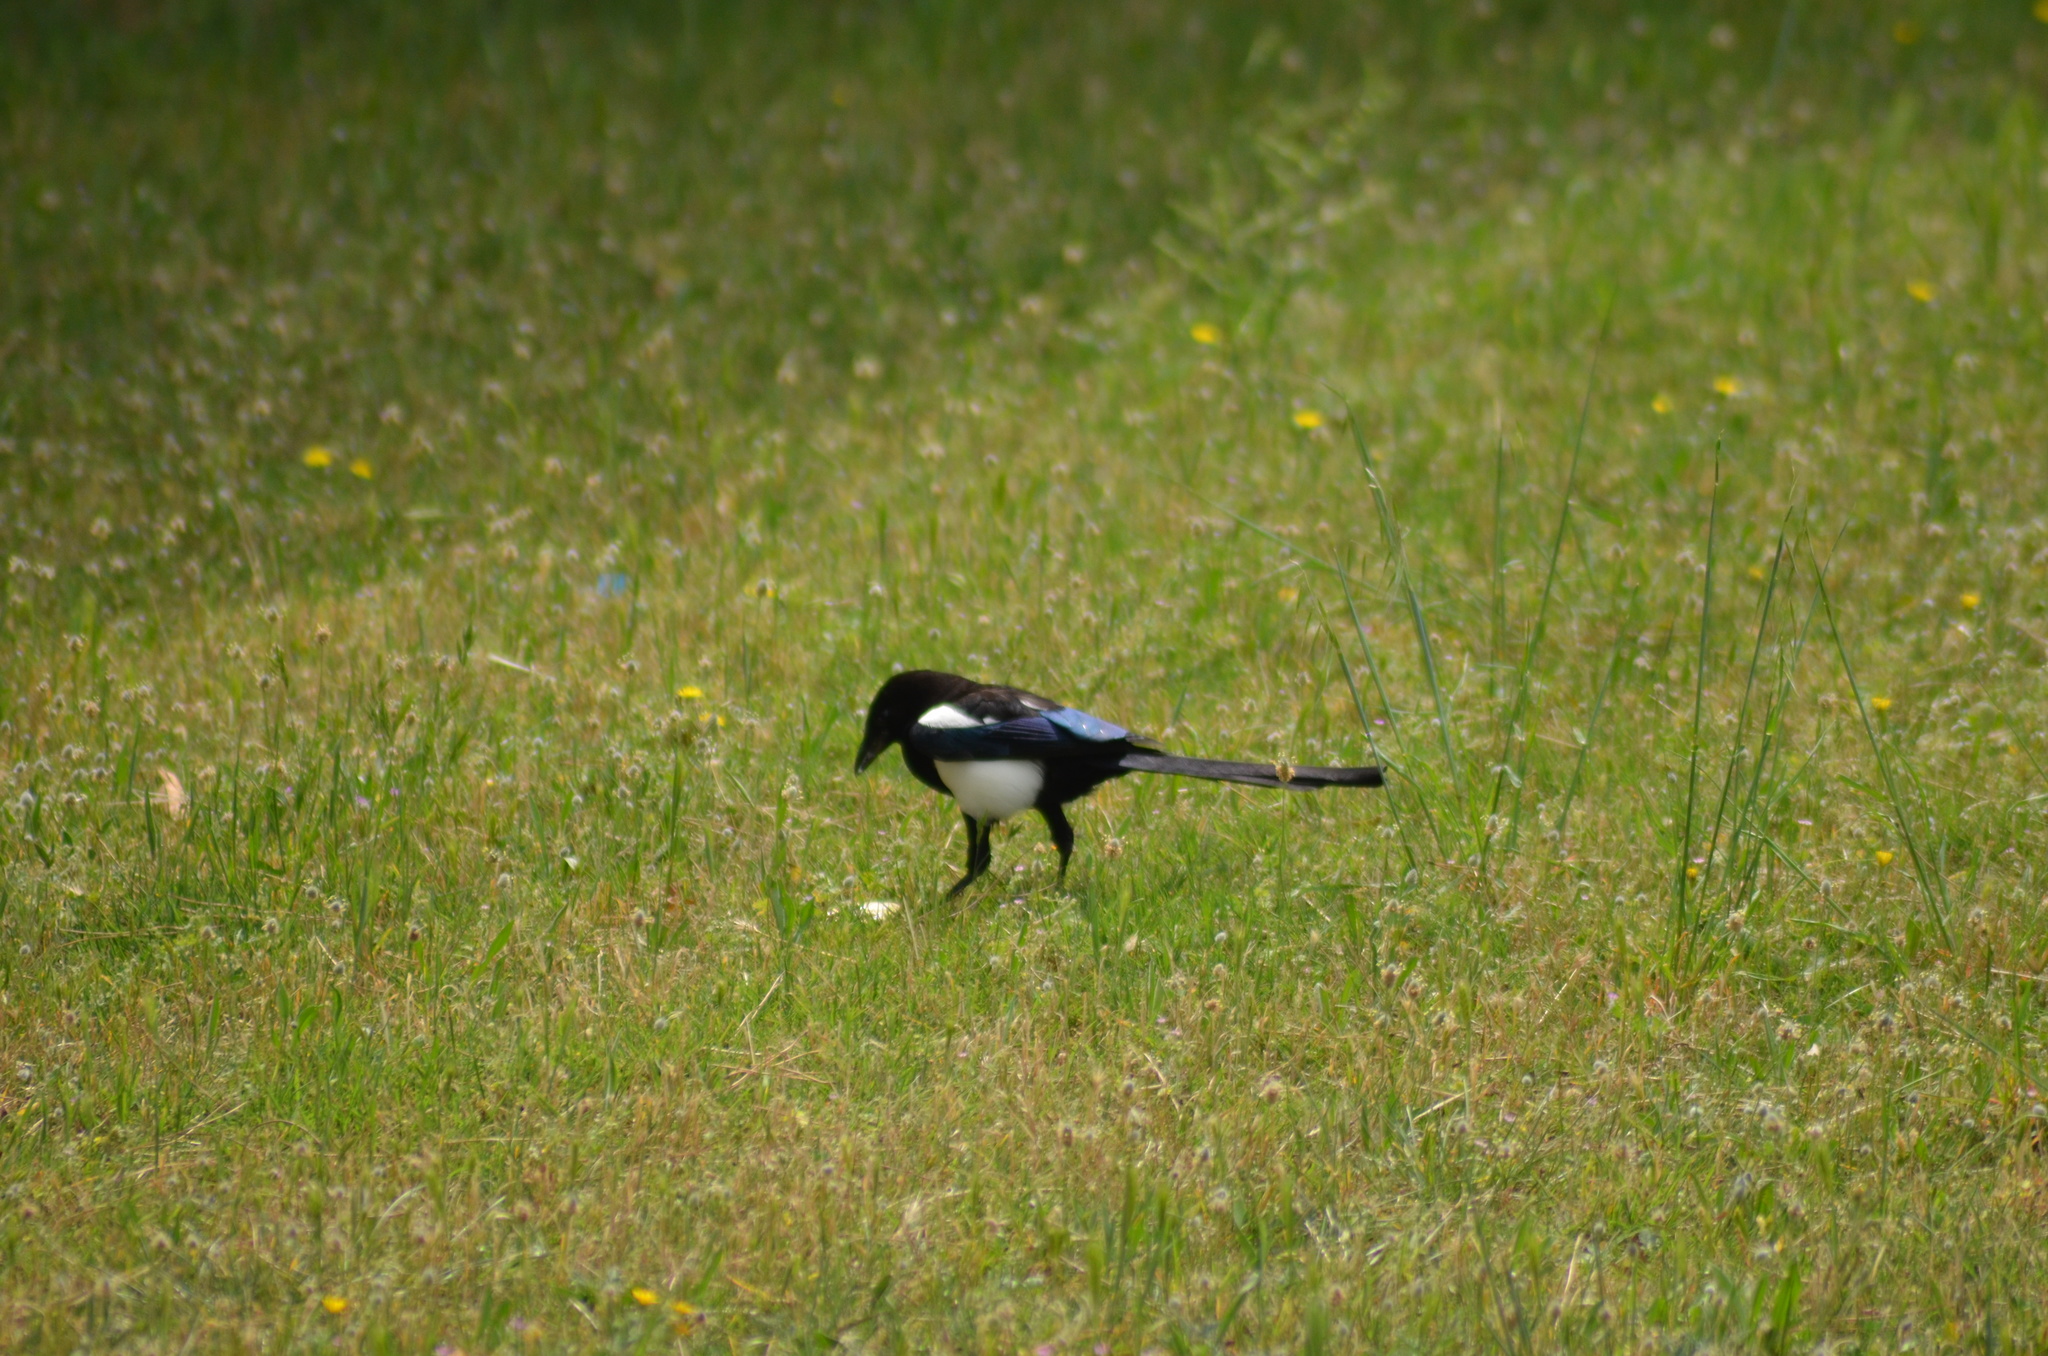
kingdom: Animalia
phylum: Chordata
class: Aves
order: Passeriformes
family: Corvidae
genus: Pica
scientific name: Pica pica
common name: Eurasian magpie
